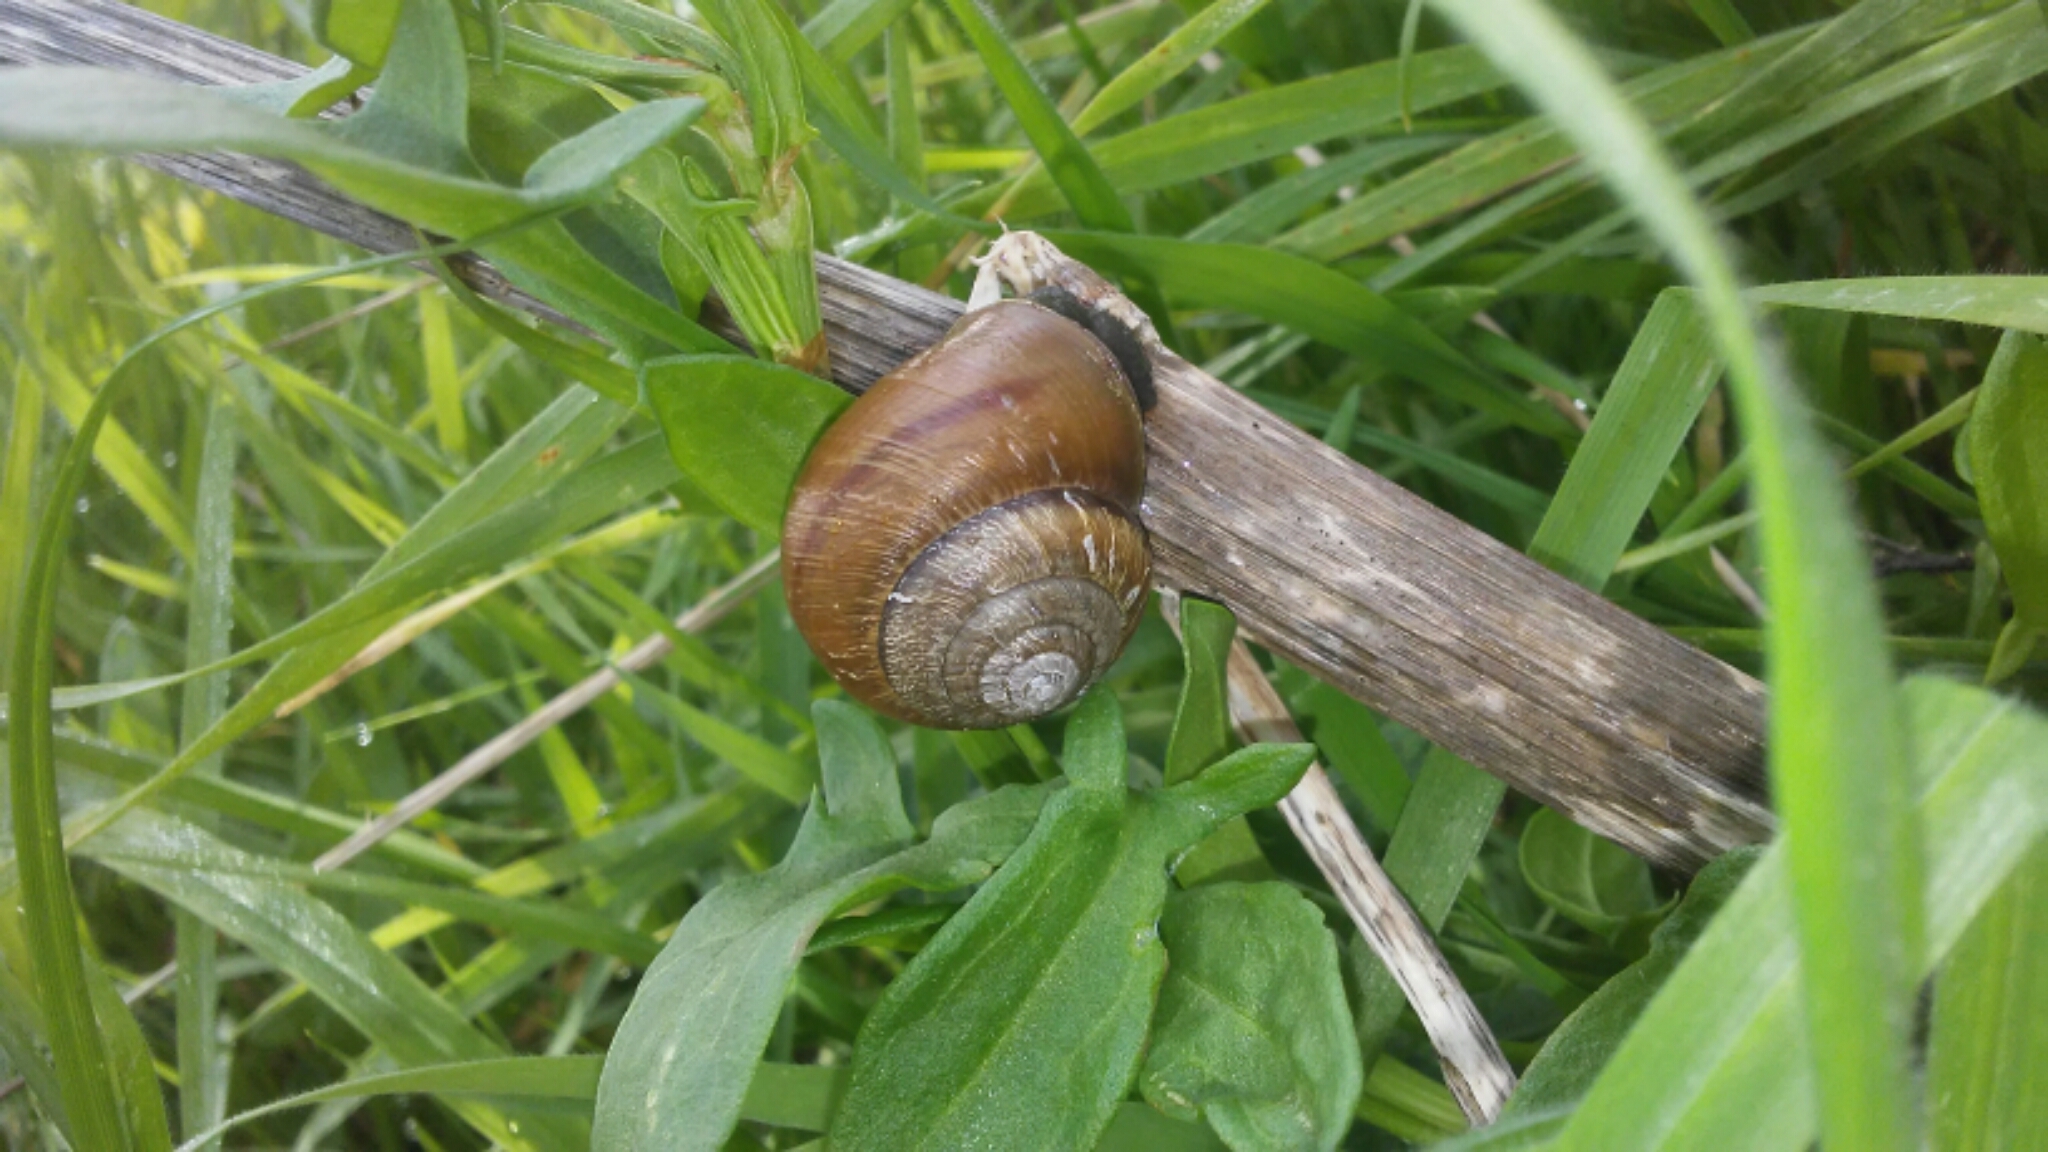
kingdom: Animalia
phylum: Mollusca
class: Gastropoda
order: Stylommatophora
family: Xanthonychidae
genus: Helminthoglypta
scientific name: Helminthoglypta stiversiana
